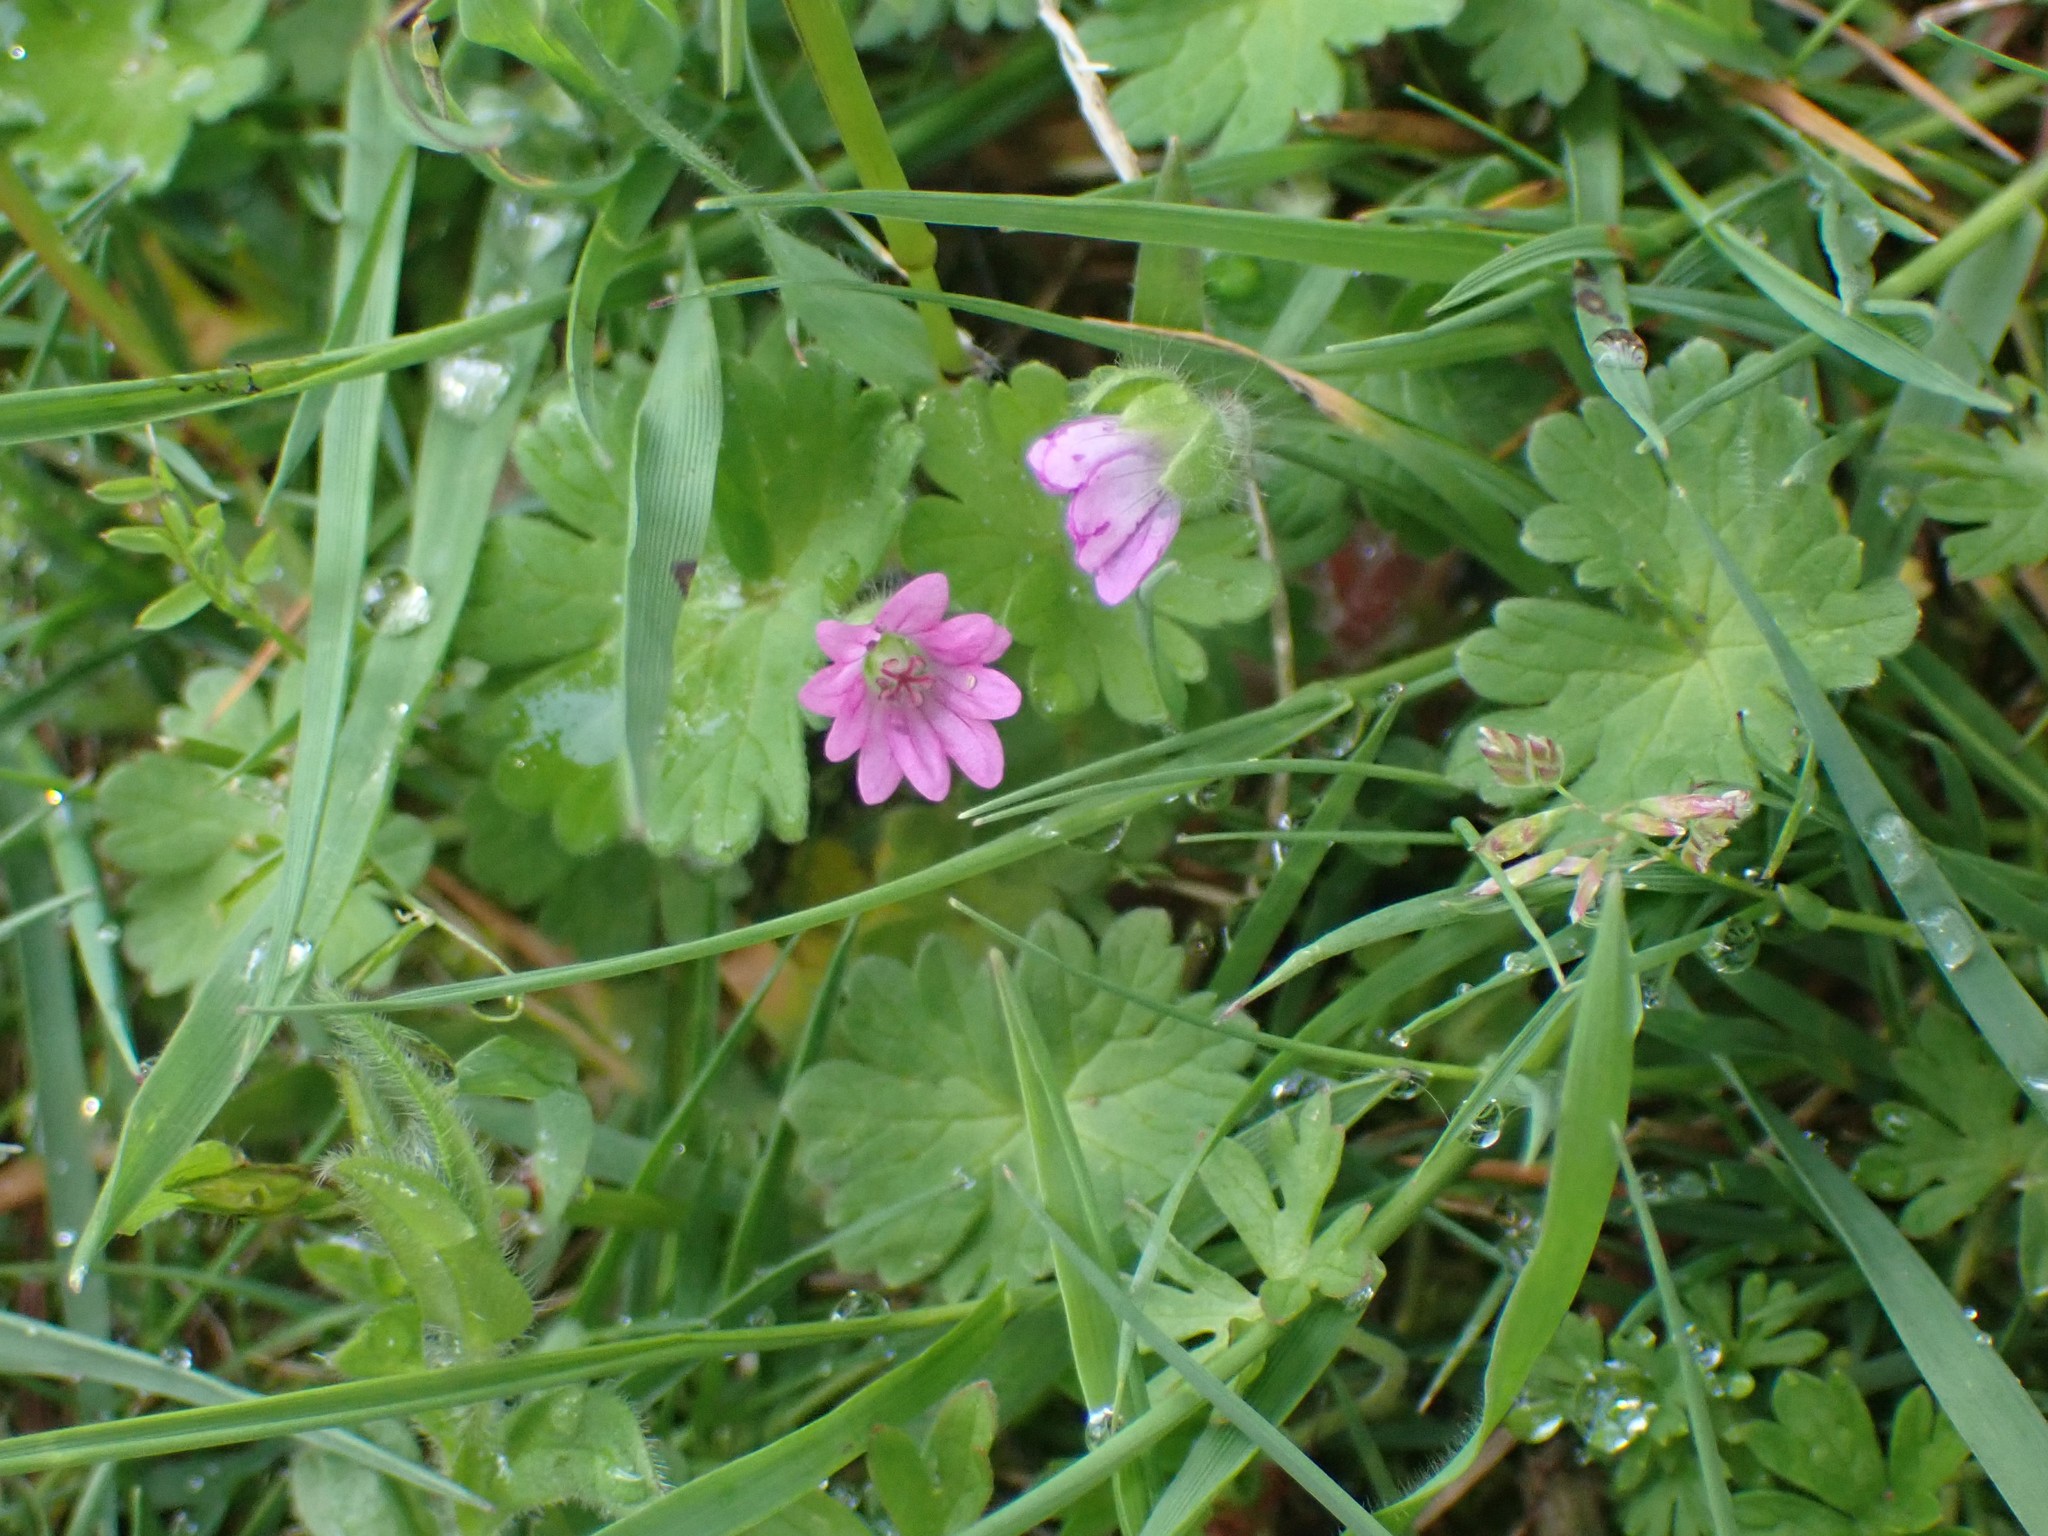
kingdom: Plantae
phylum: Tracheophyta
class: Magnoliopsida
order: Geraniales
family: Geraniaceae
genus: Geranium
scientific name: Geranium molle
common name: Dove's-foot crane's-bill
